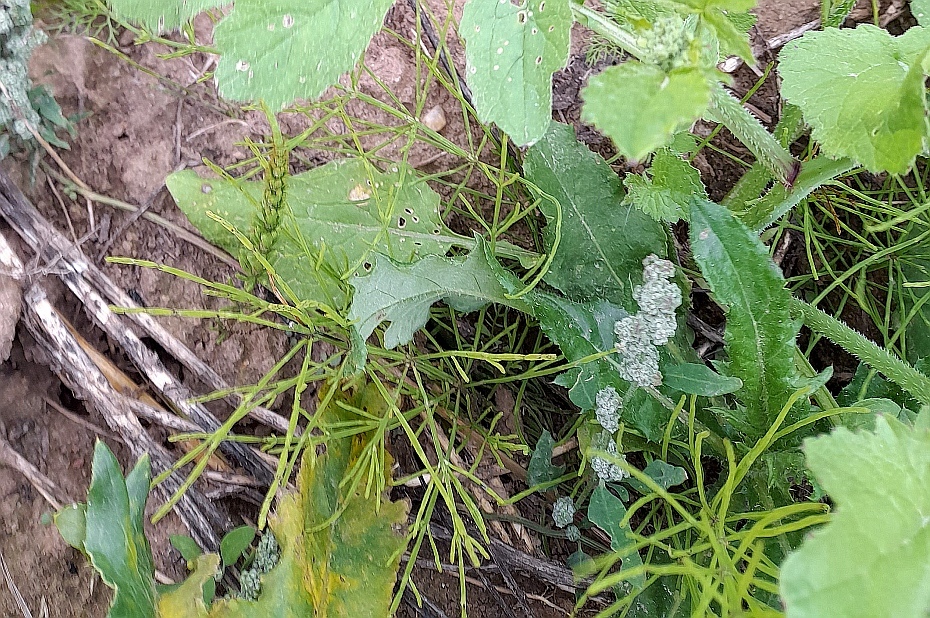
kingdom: Plantae
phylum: Tracheophyta
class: Polypodiopsida
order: Equisetales
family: Equisetaceae
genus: Equisetum
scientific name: Equisetum arvense
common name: Field horsetail
